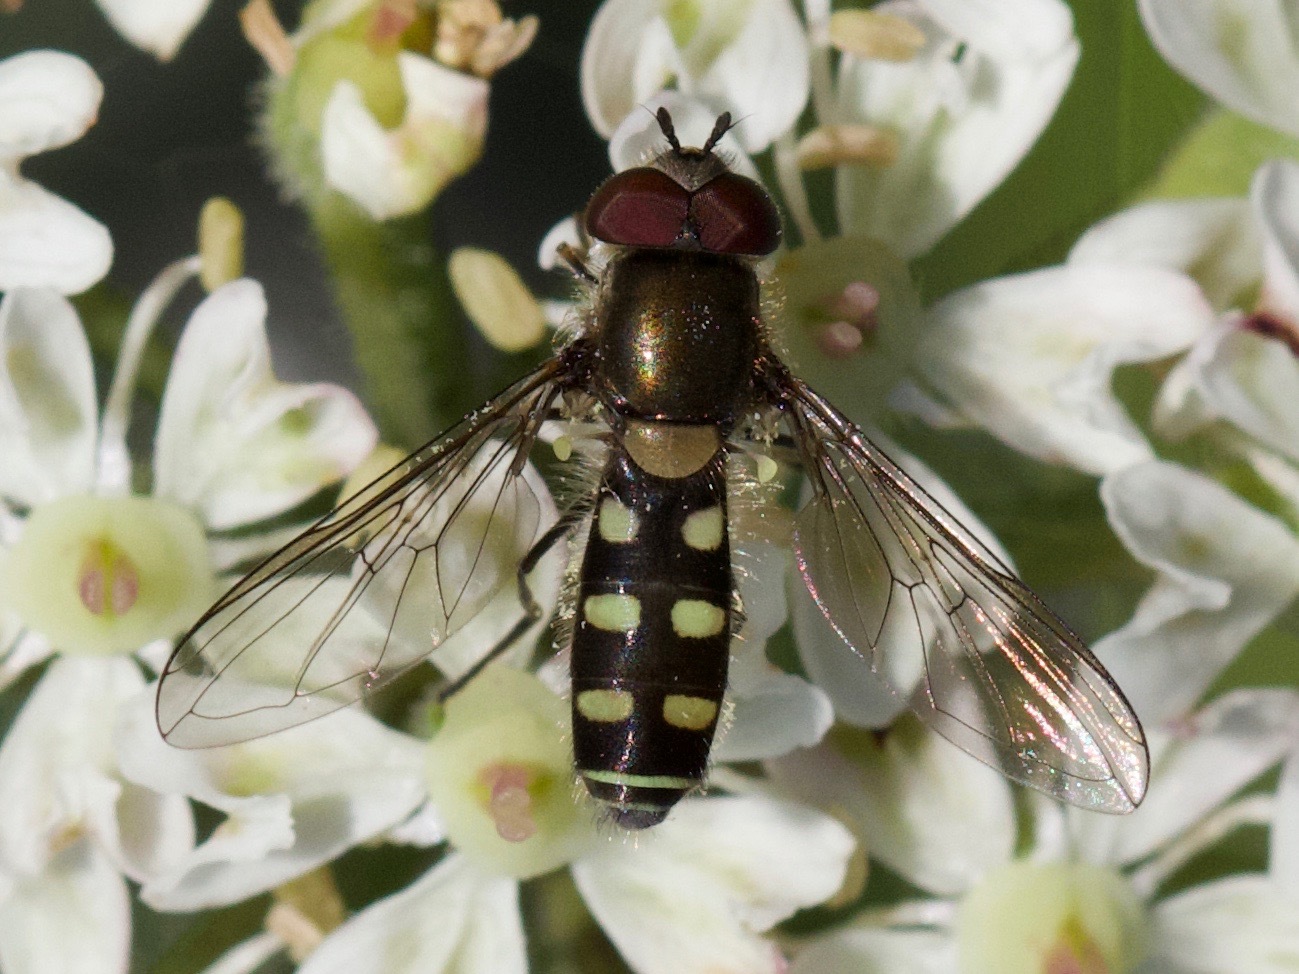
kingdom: Animalia
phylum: Arthropoda
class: Insecta
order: Diptera
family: Syrphidae
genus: Melangyna
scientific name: Melangyna labiatarum
